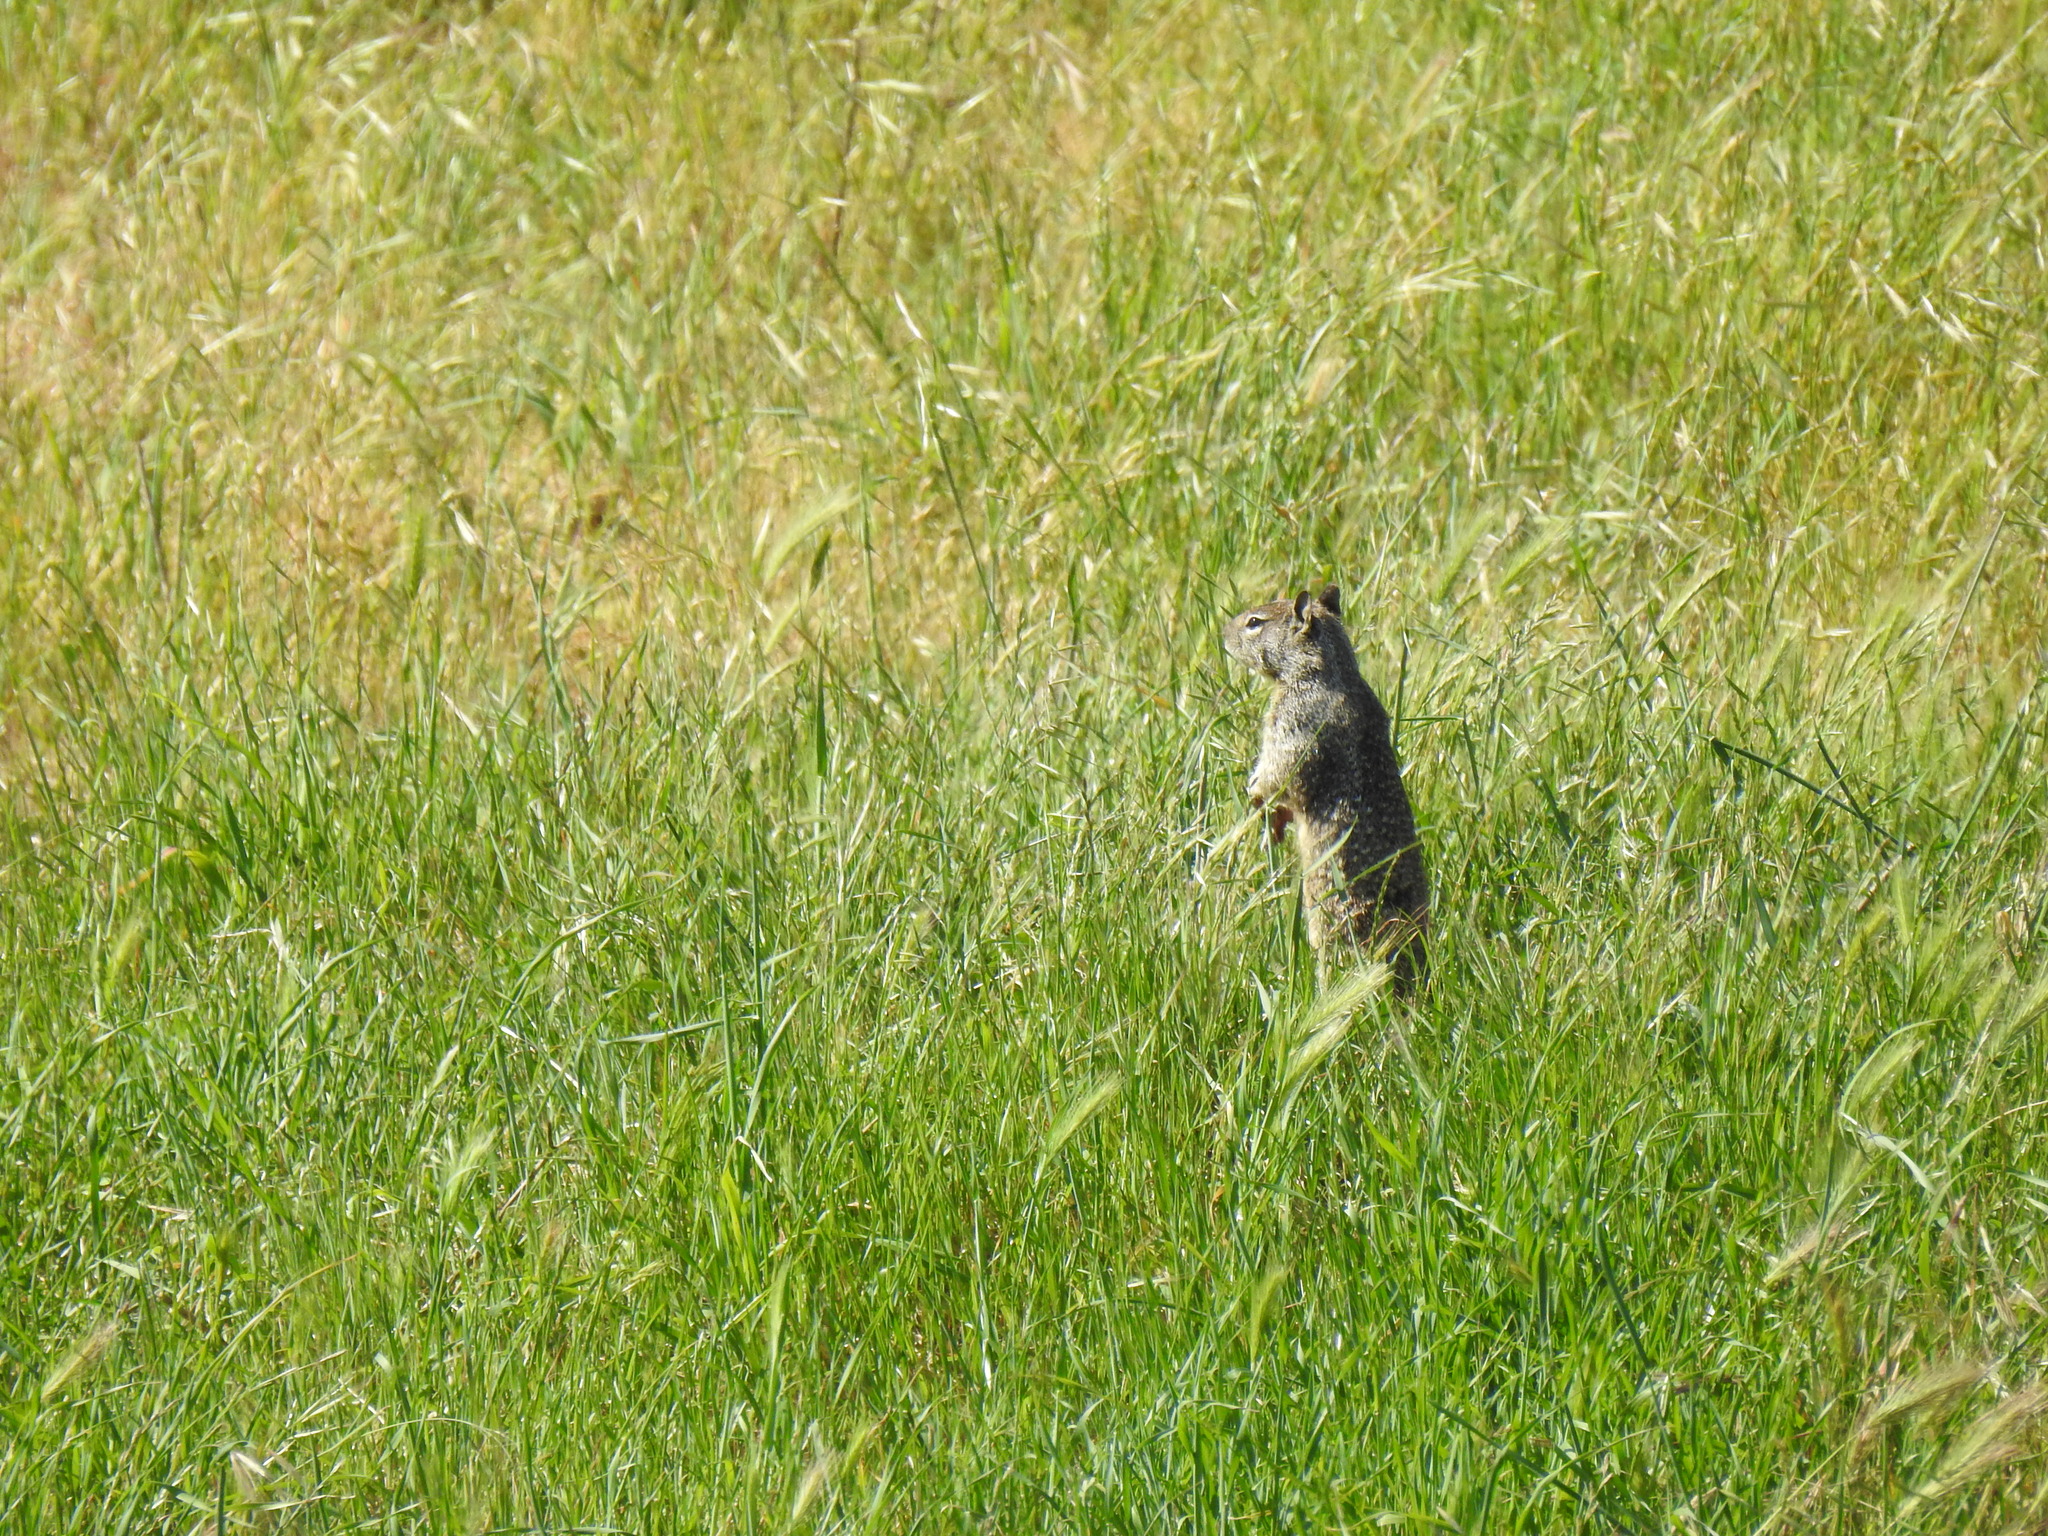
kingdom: Animalia
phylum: Chordata
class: Mammalia
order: Rodentia
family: Sciuridae
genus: Otospermophilus
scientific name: Otospermophilus beecheyi
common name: California ground squirrel
